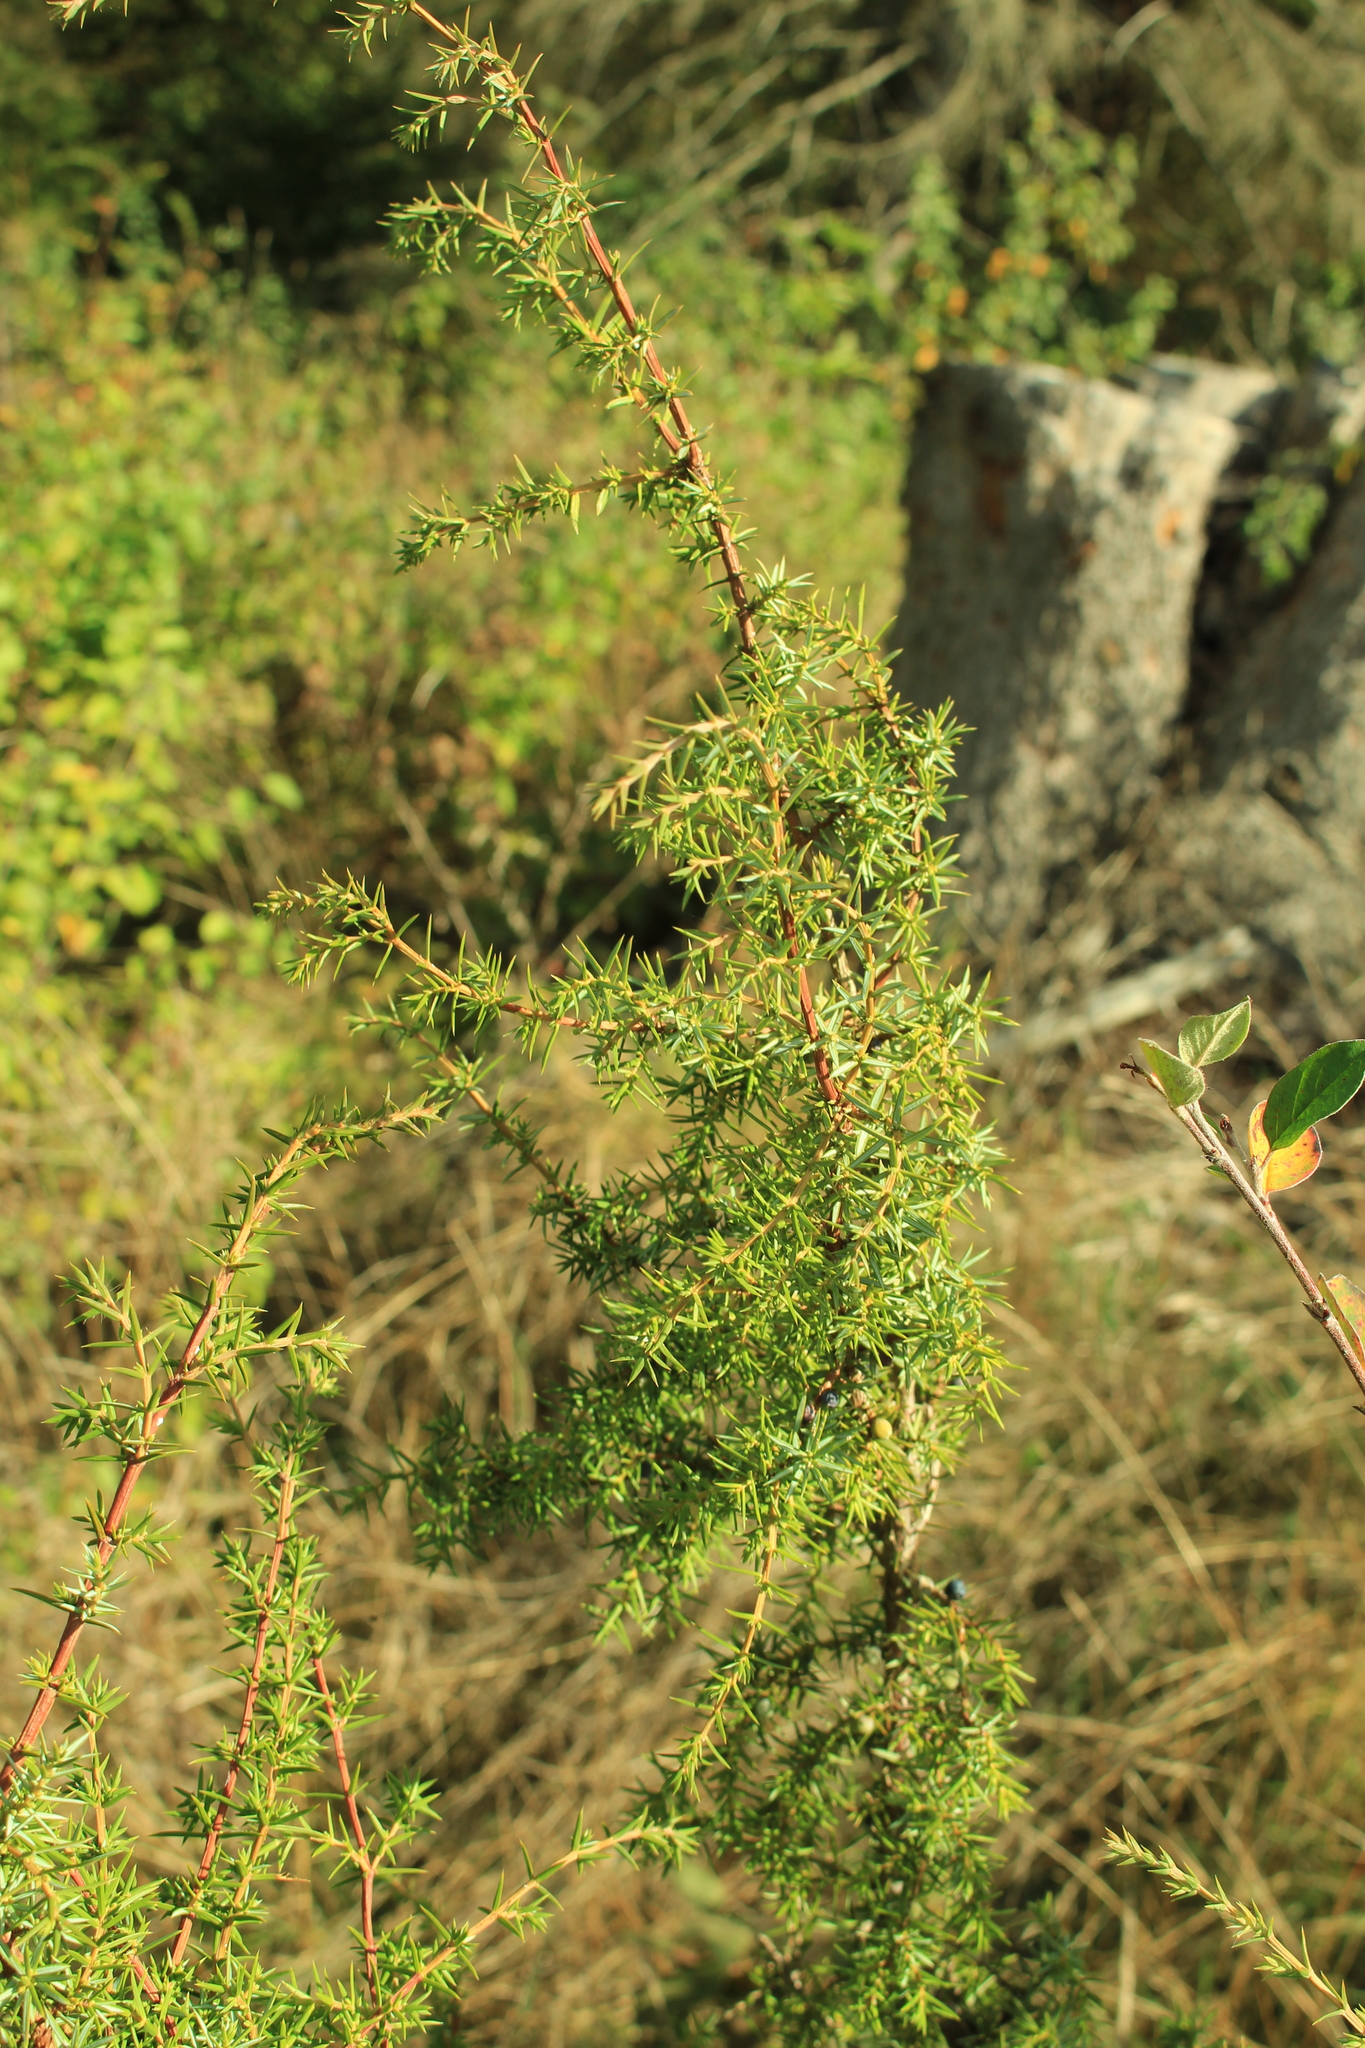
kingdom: Plantae
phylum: Tracheophyta
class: Pinopsida
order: Pinales
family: Cupressaceae
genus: Juniperus
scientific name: Juniperus communis
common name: Common juniper
